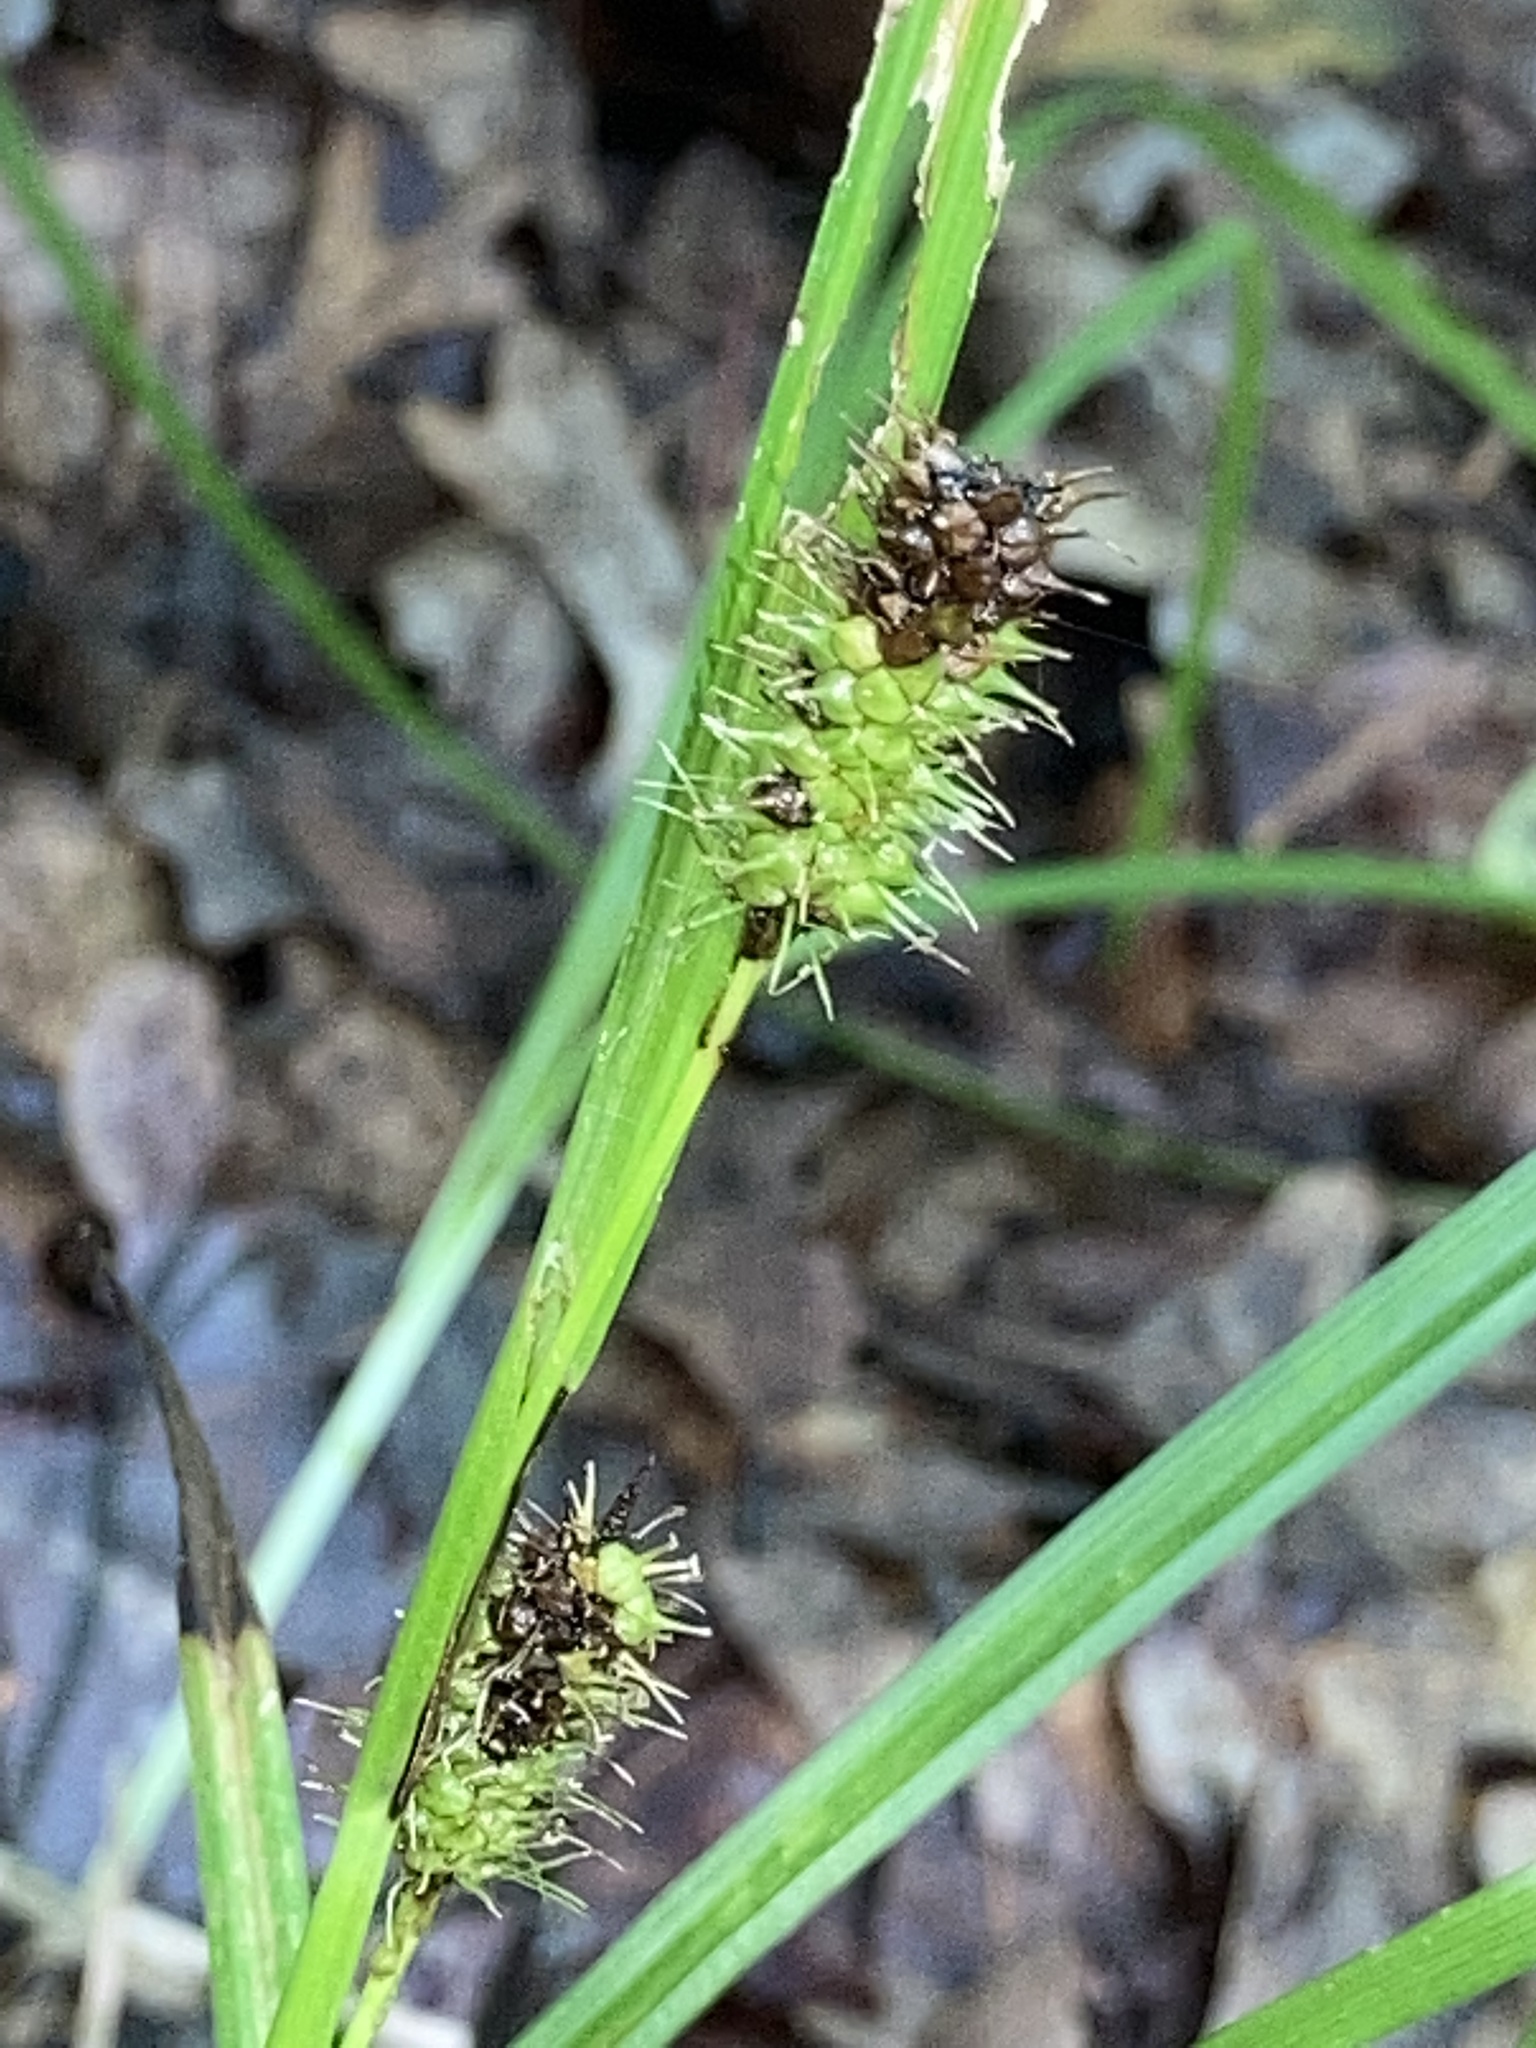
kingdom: Plantae
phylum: Tracheophyta
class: Liliopsida
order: Poales
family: Cyperaceae
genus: Carex
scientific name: Carex aureolensis
